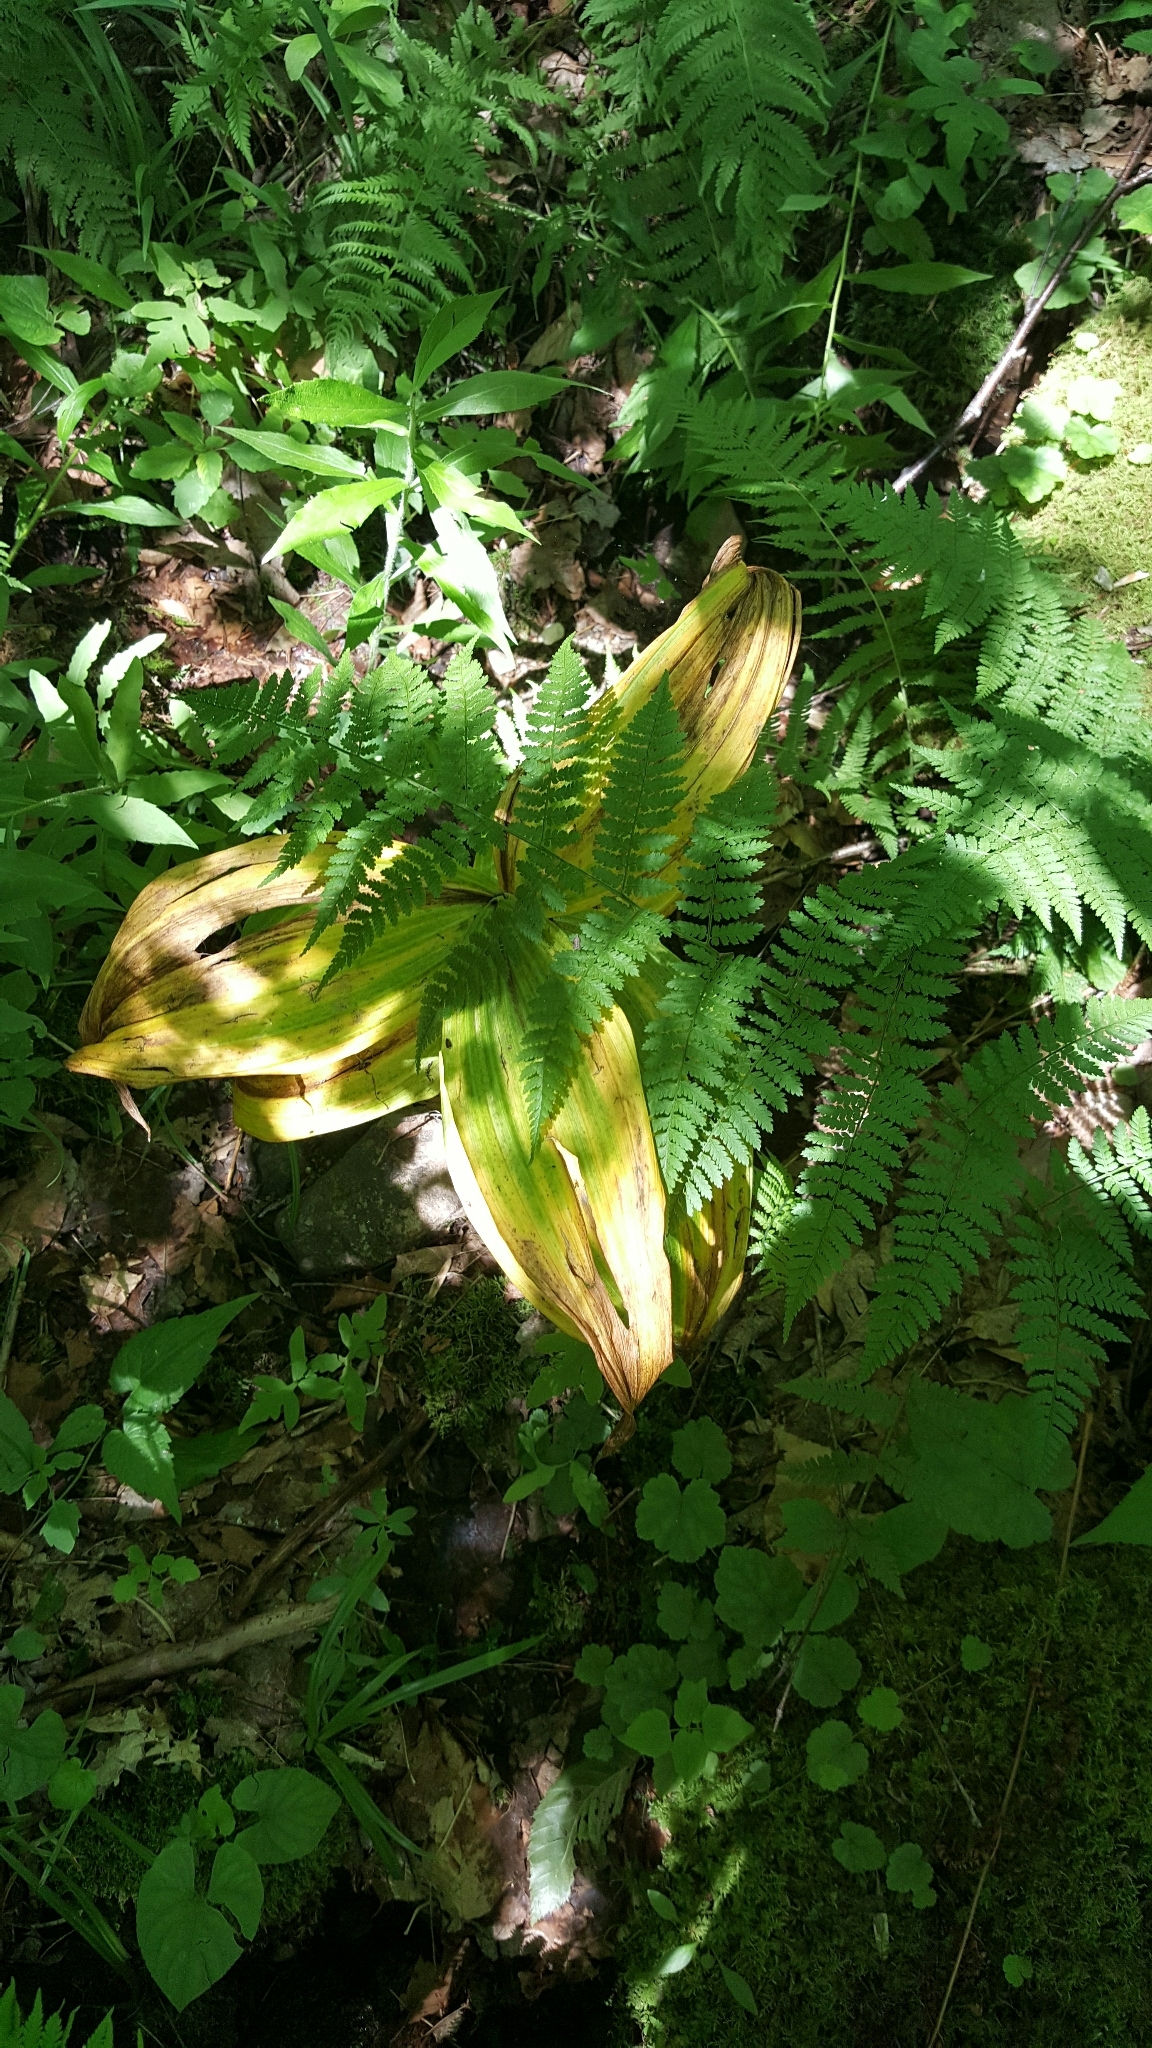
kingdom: Plantae
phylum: Tracheophyta
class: Liliopsida
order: Liliales
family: Melanthiaceae
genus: Veratrum
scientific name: Veratrum viride
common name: American false hellebore
